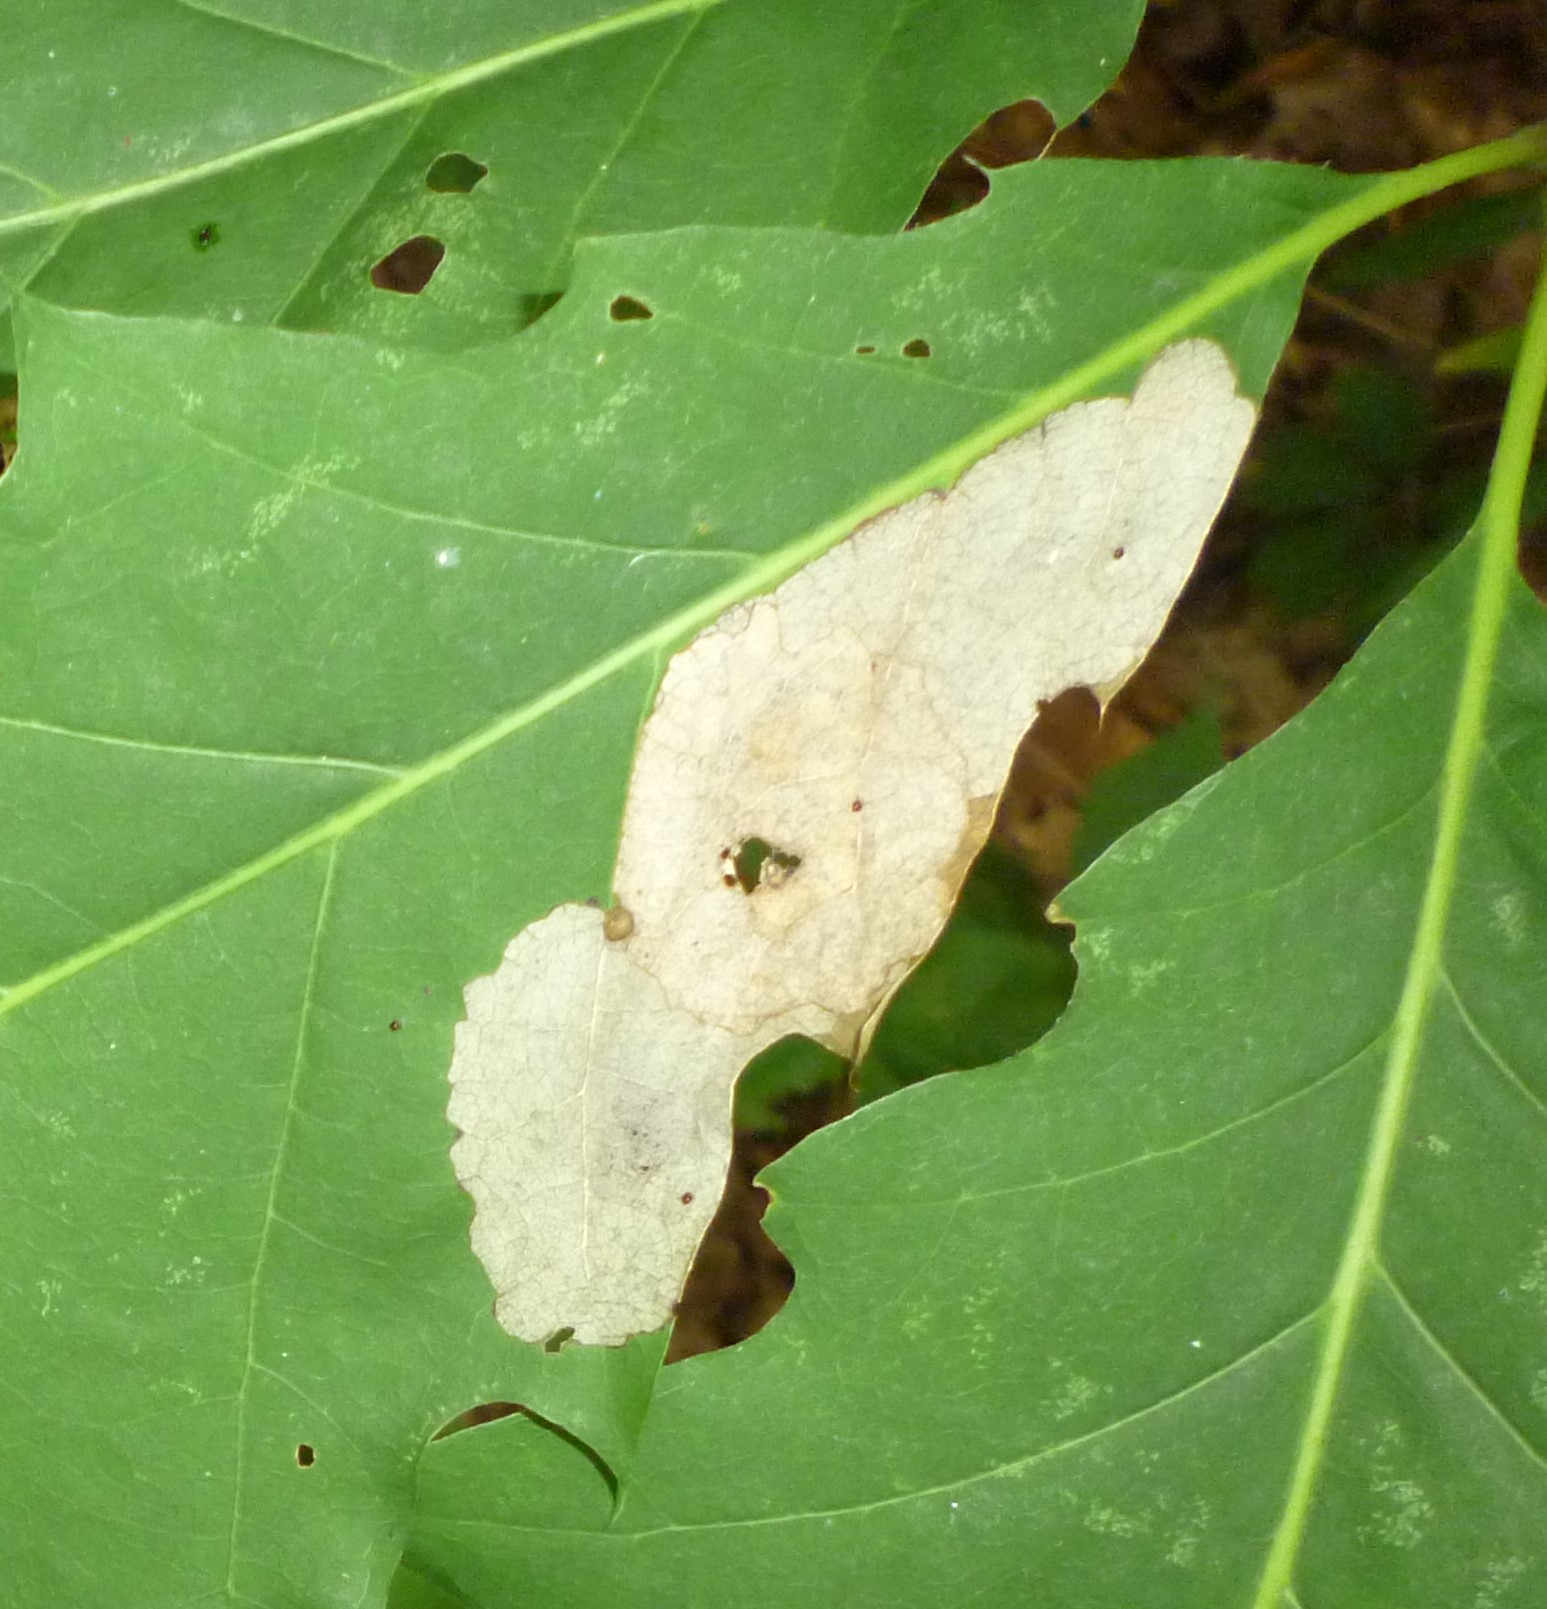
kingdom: Animalia
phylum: Arthropoda
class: Insecta
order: Coleoptera
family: Chrysomelidae
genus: Baliosus
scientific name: Baliosus nervosus
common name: Basswood leaf miner
